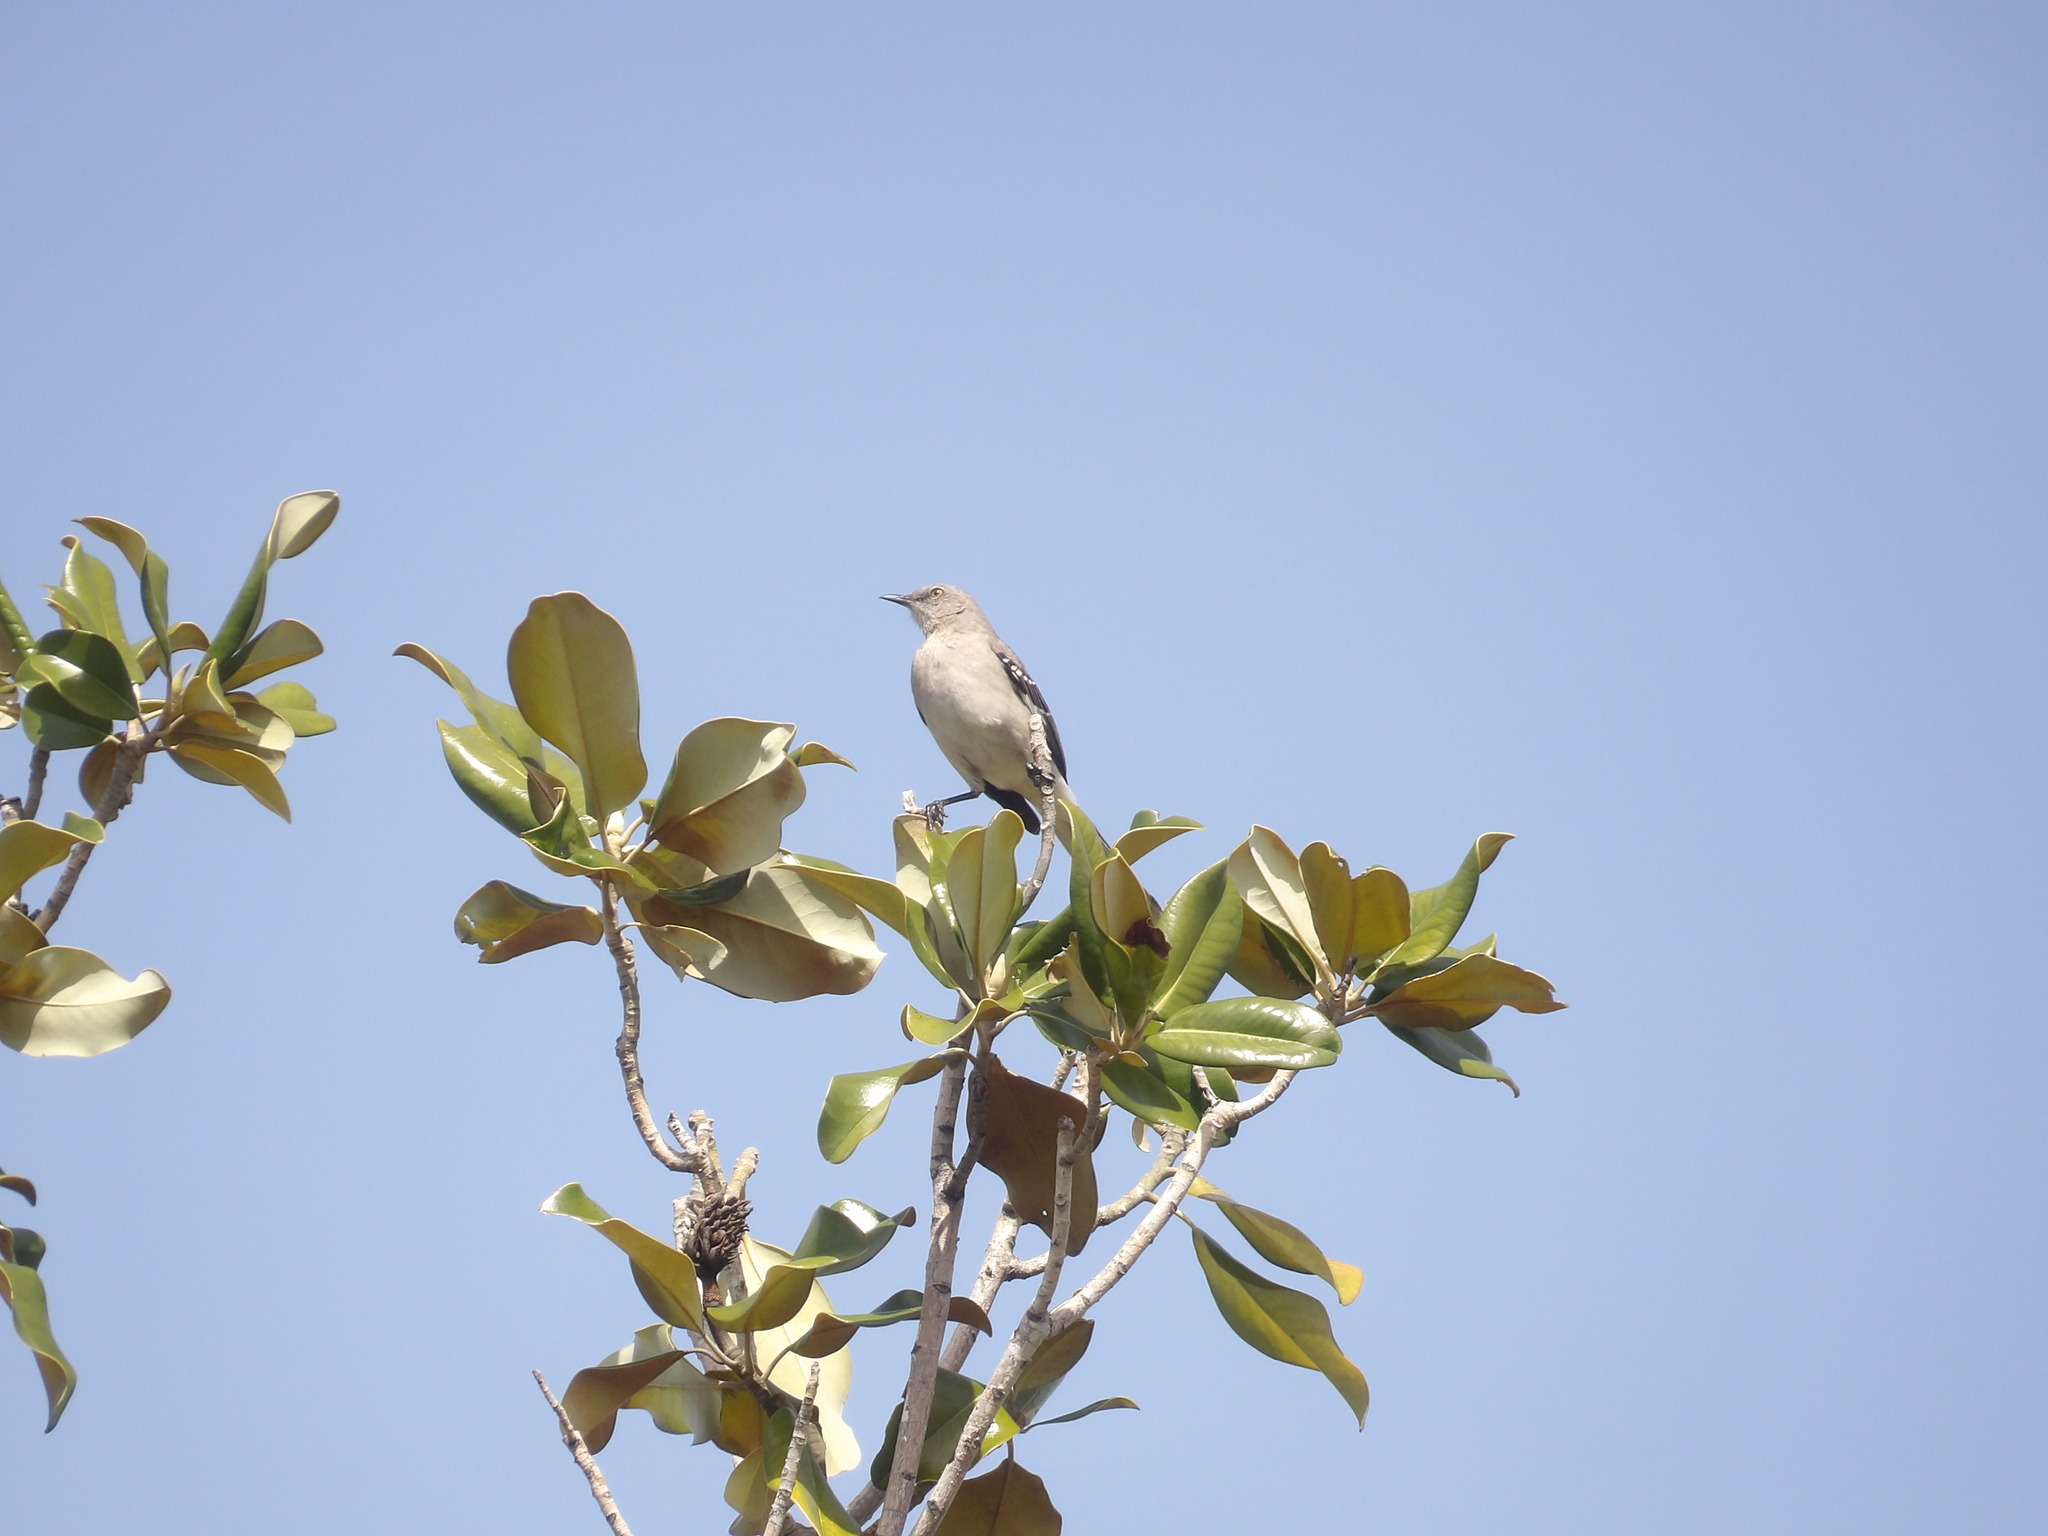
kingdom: Animalia
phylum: Chordata
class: Aves
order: Passeriformes
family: Mimidae
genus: Mimus
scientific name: Mimus polyglottos
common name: Northern mockingbird
